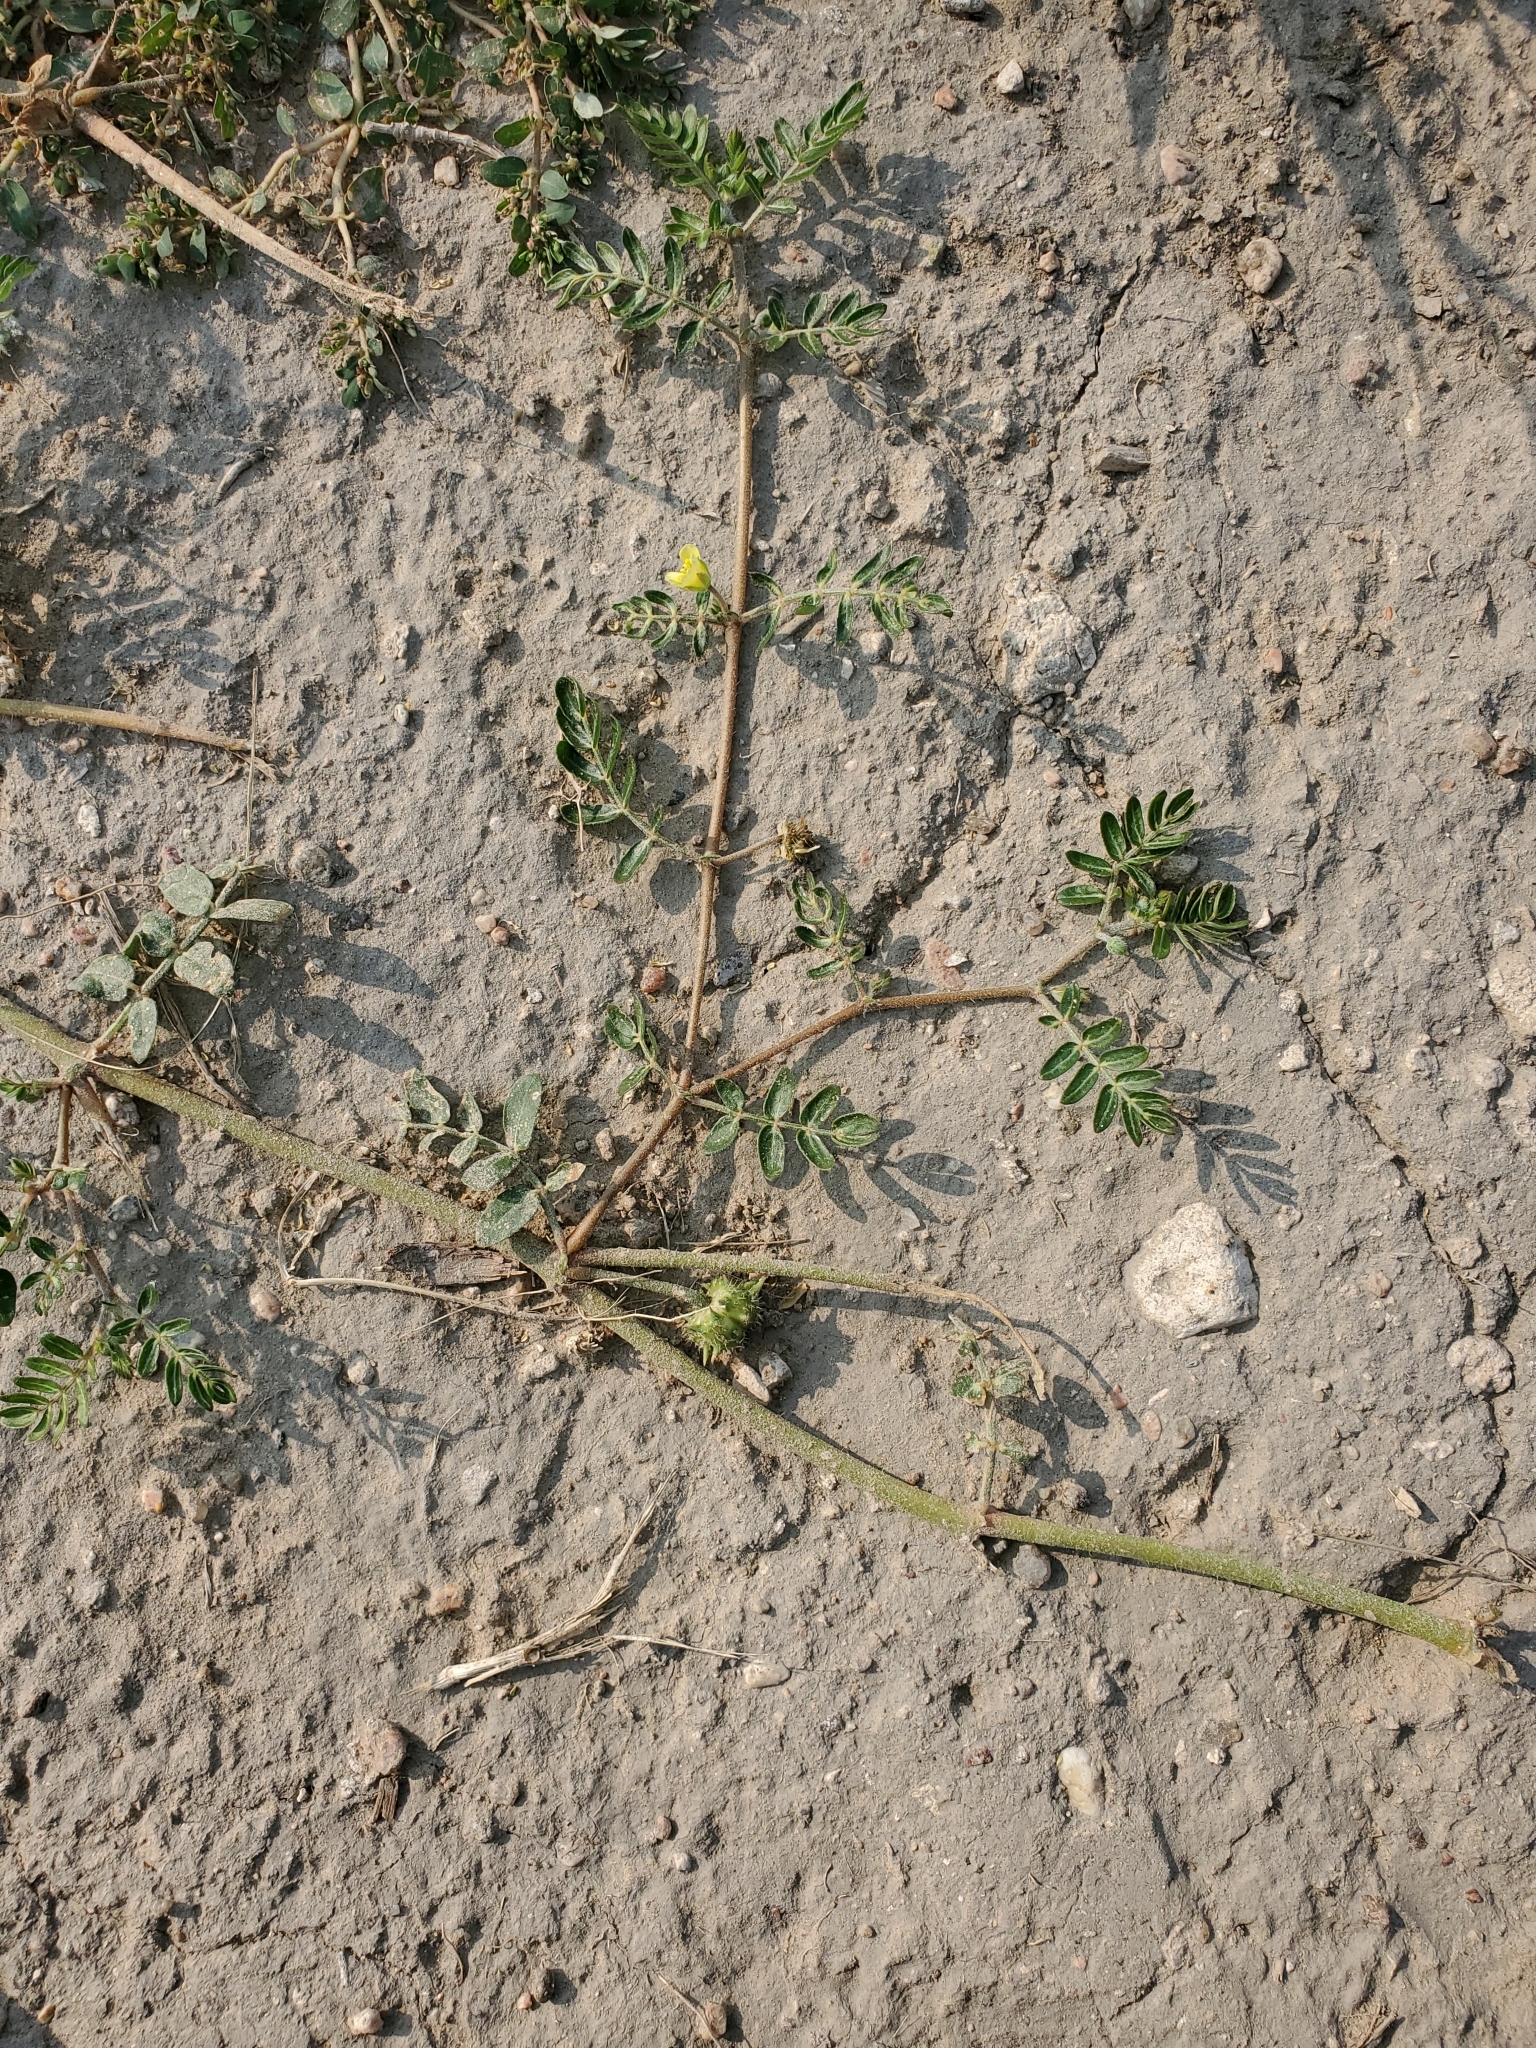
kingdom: Plantae
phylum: Tracheophyta
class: Magnoliopsida
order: Zygophyllales
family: Zygophyllaceae
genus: Tribulus
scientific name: Tribulus terrestris
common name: Puncturevine
